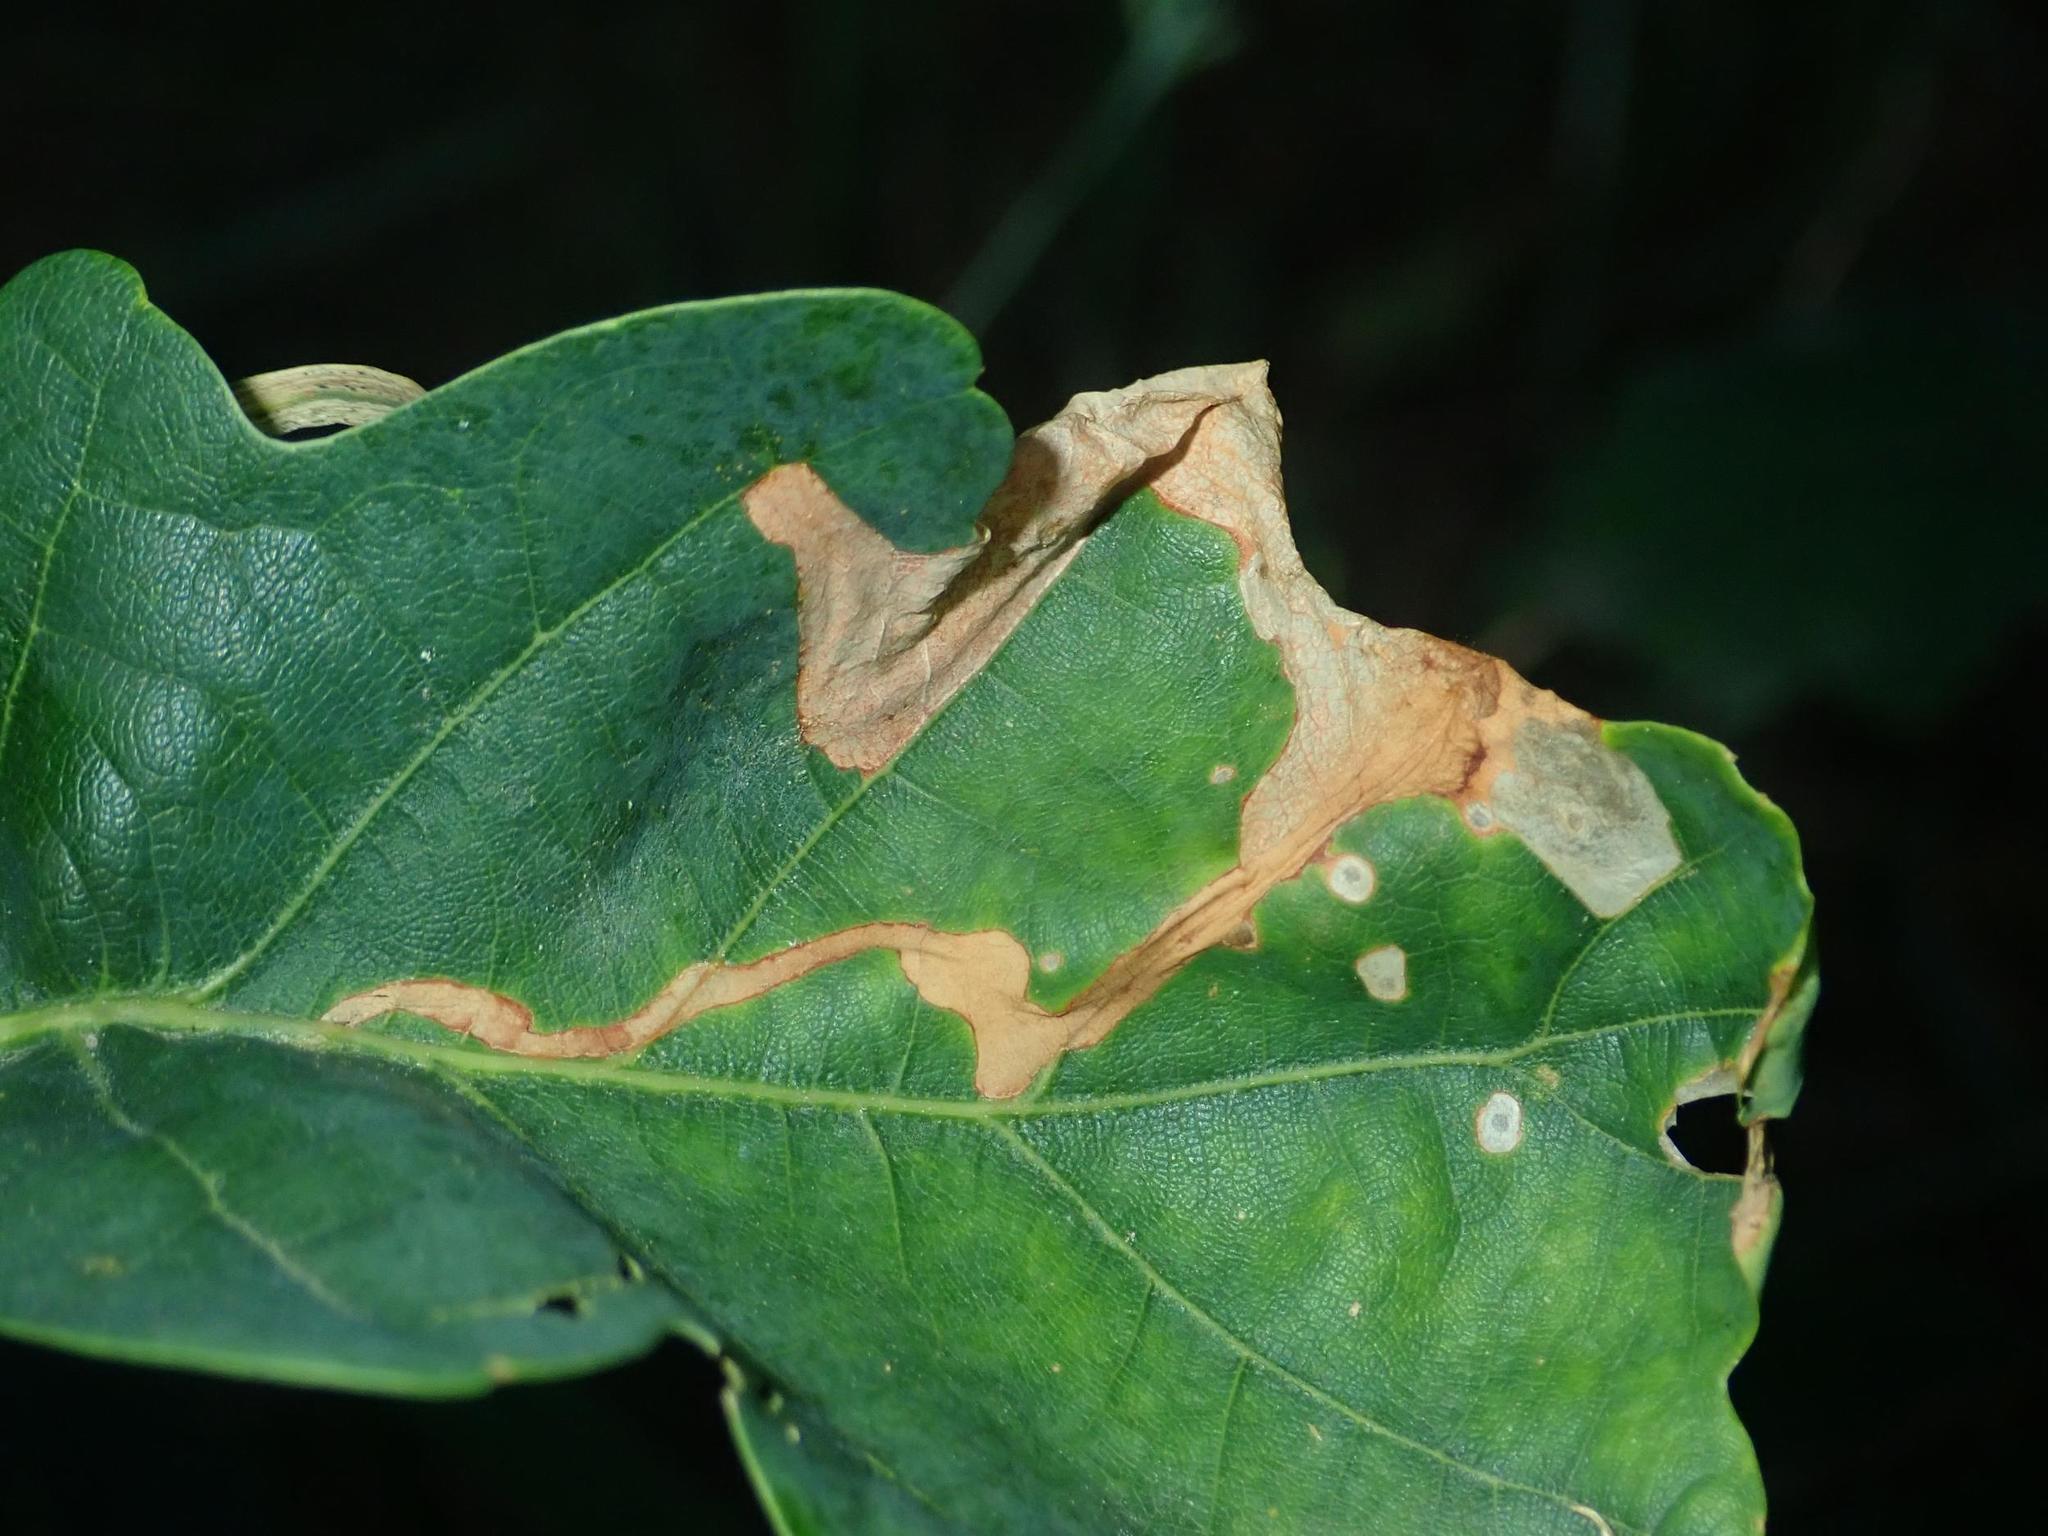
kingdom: Animalia
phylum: Arthropoda
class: Insecta
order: Coleoptera
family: Curculionidae
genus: Orchestes
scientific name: Orchestes quercus
